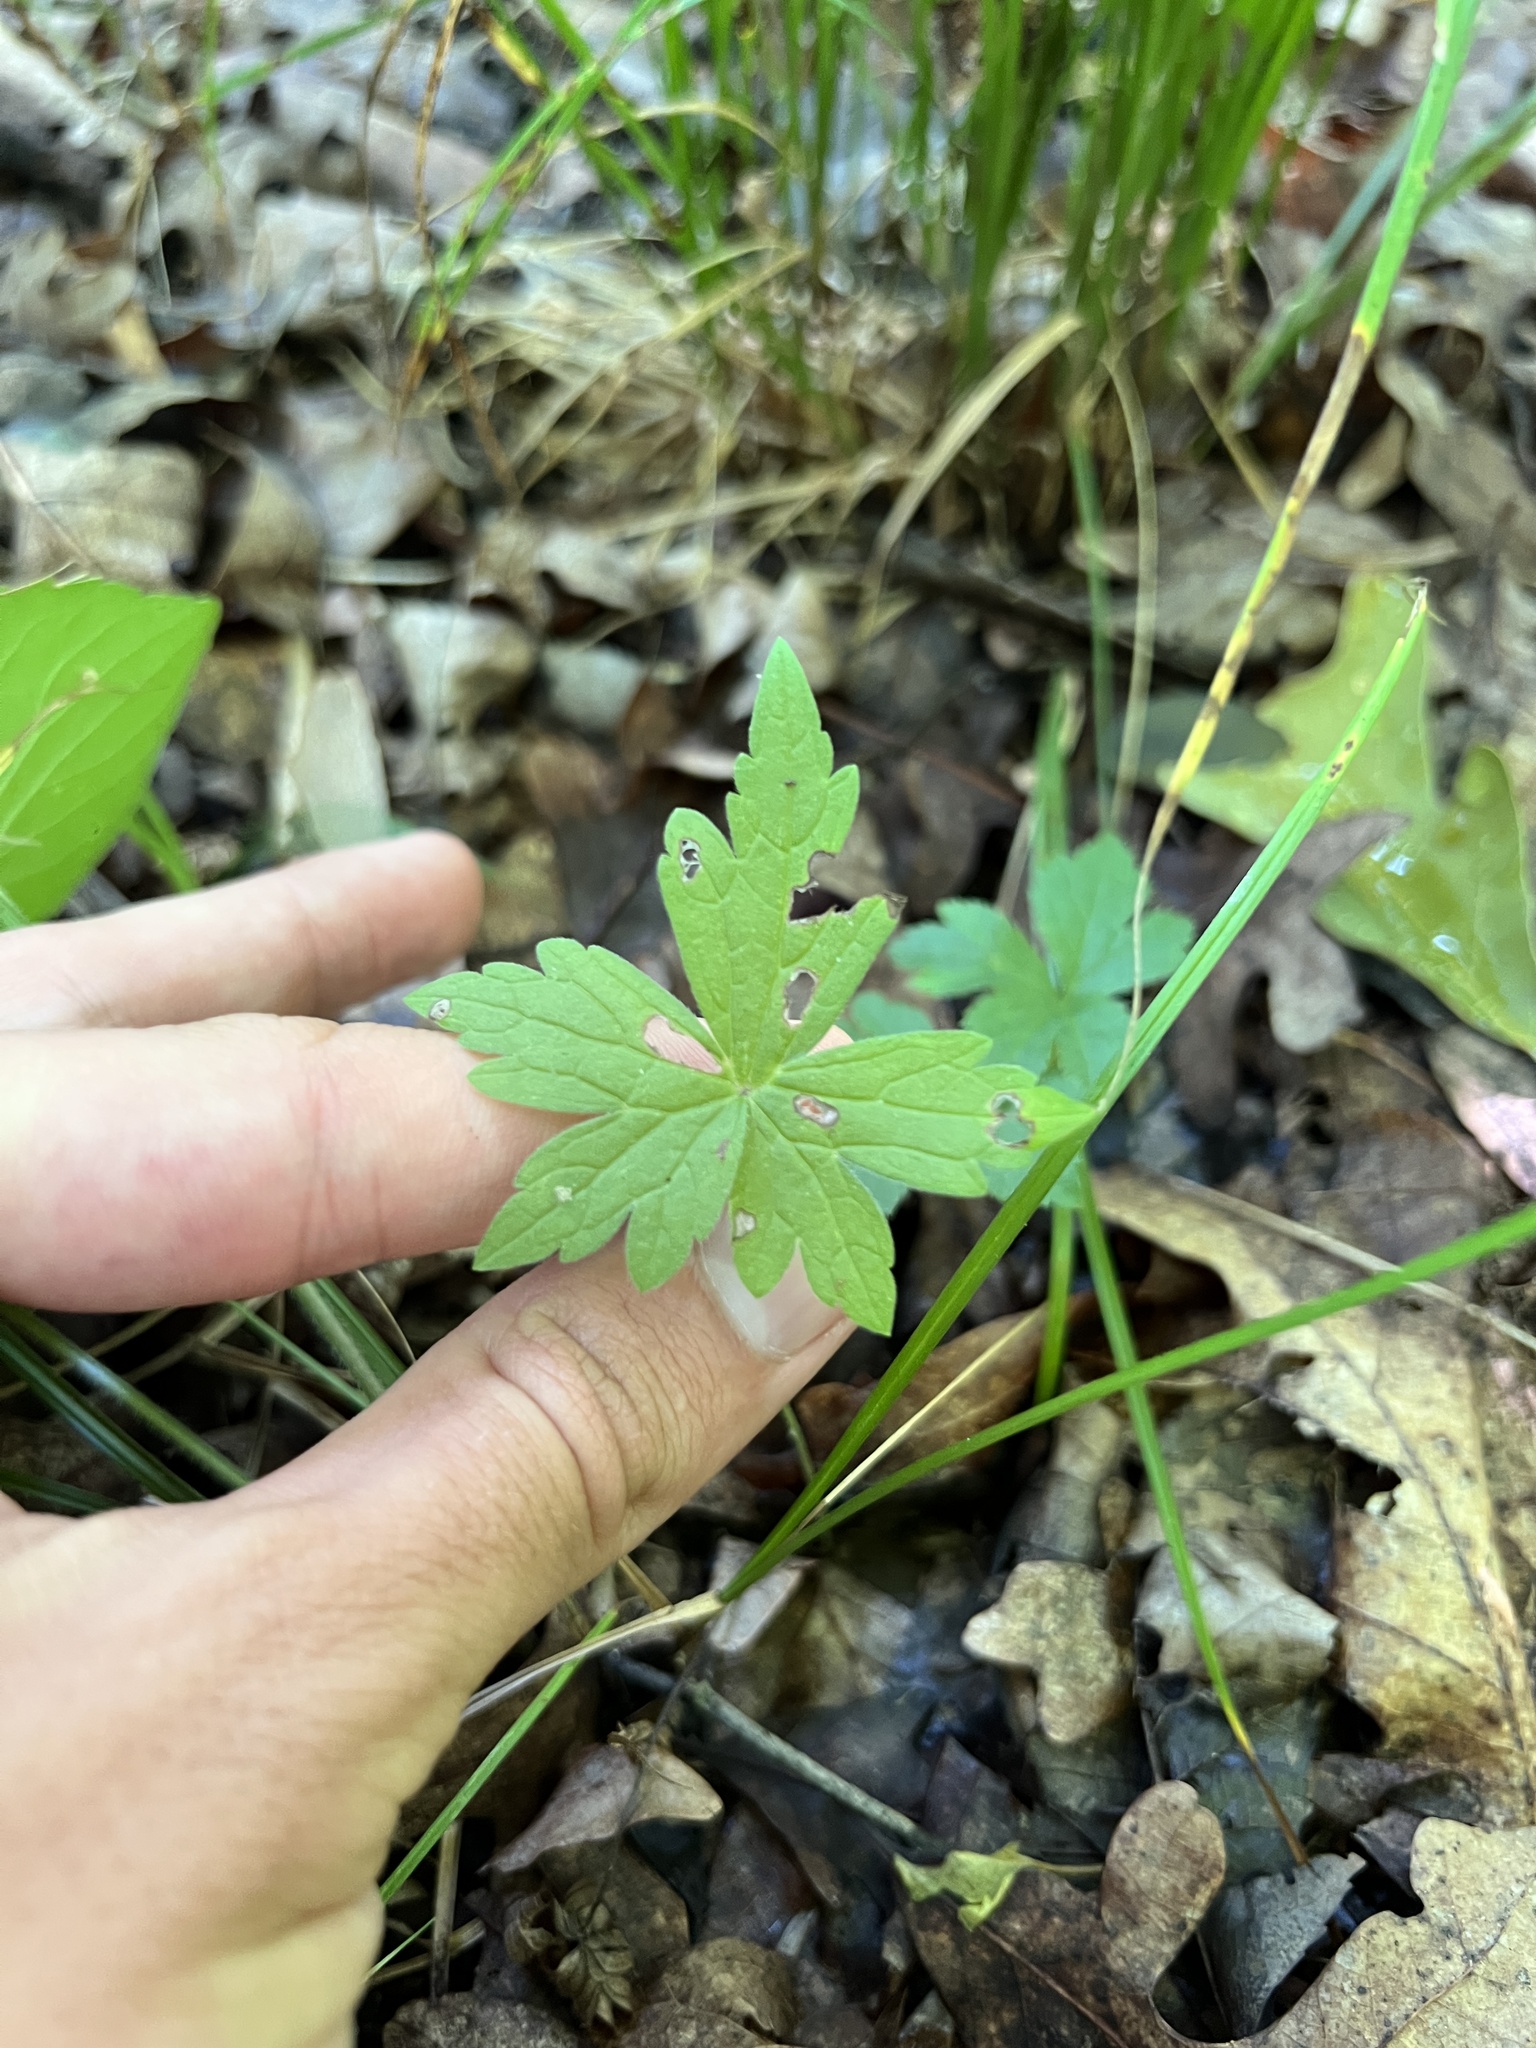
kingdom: Plantae
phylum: Tracheophyta
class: Magnoliopsida
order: Geraniales
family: Geraniaceae
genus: Geranium
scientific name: Geranium maculatum
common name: Spotted geranium
